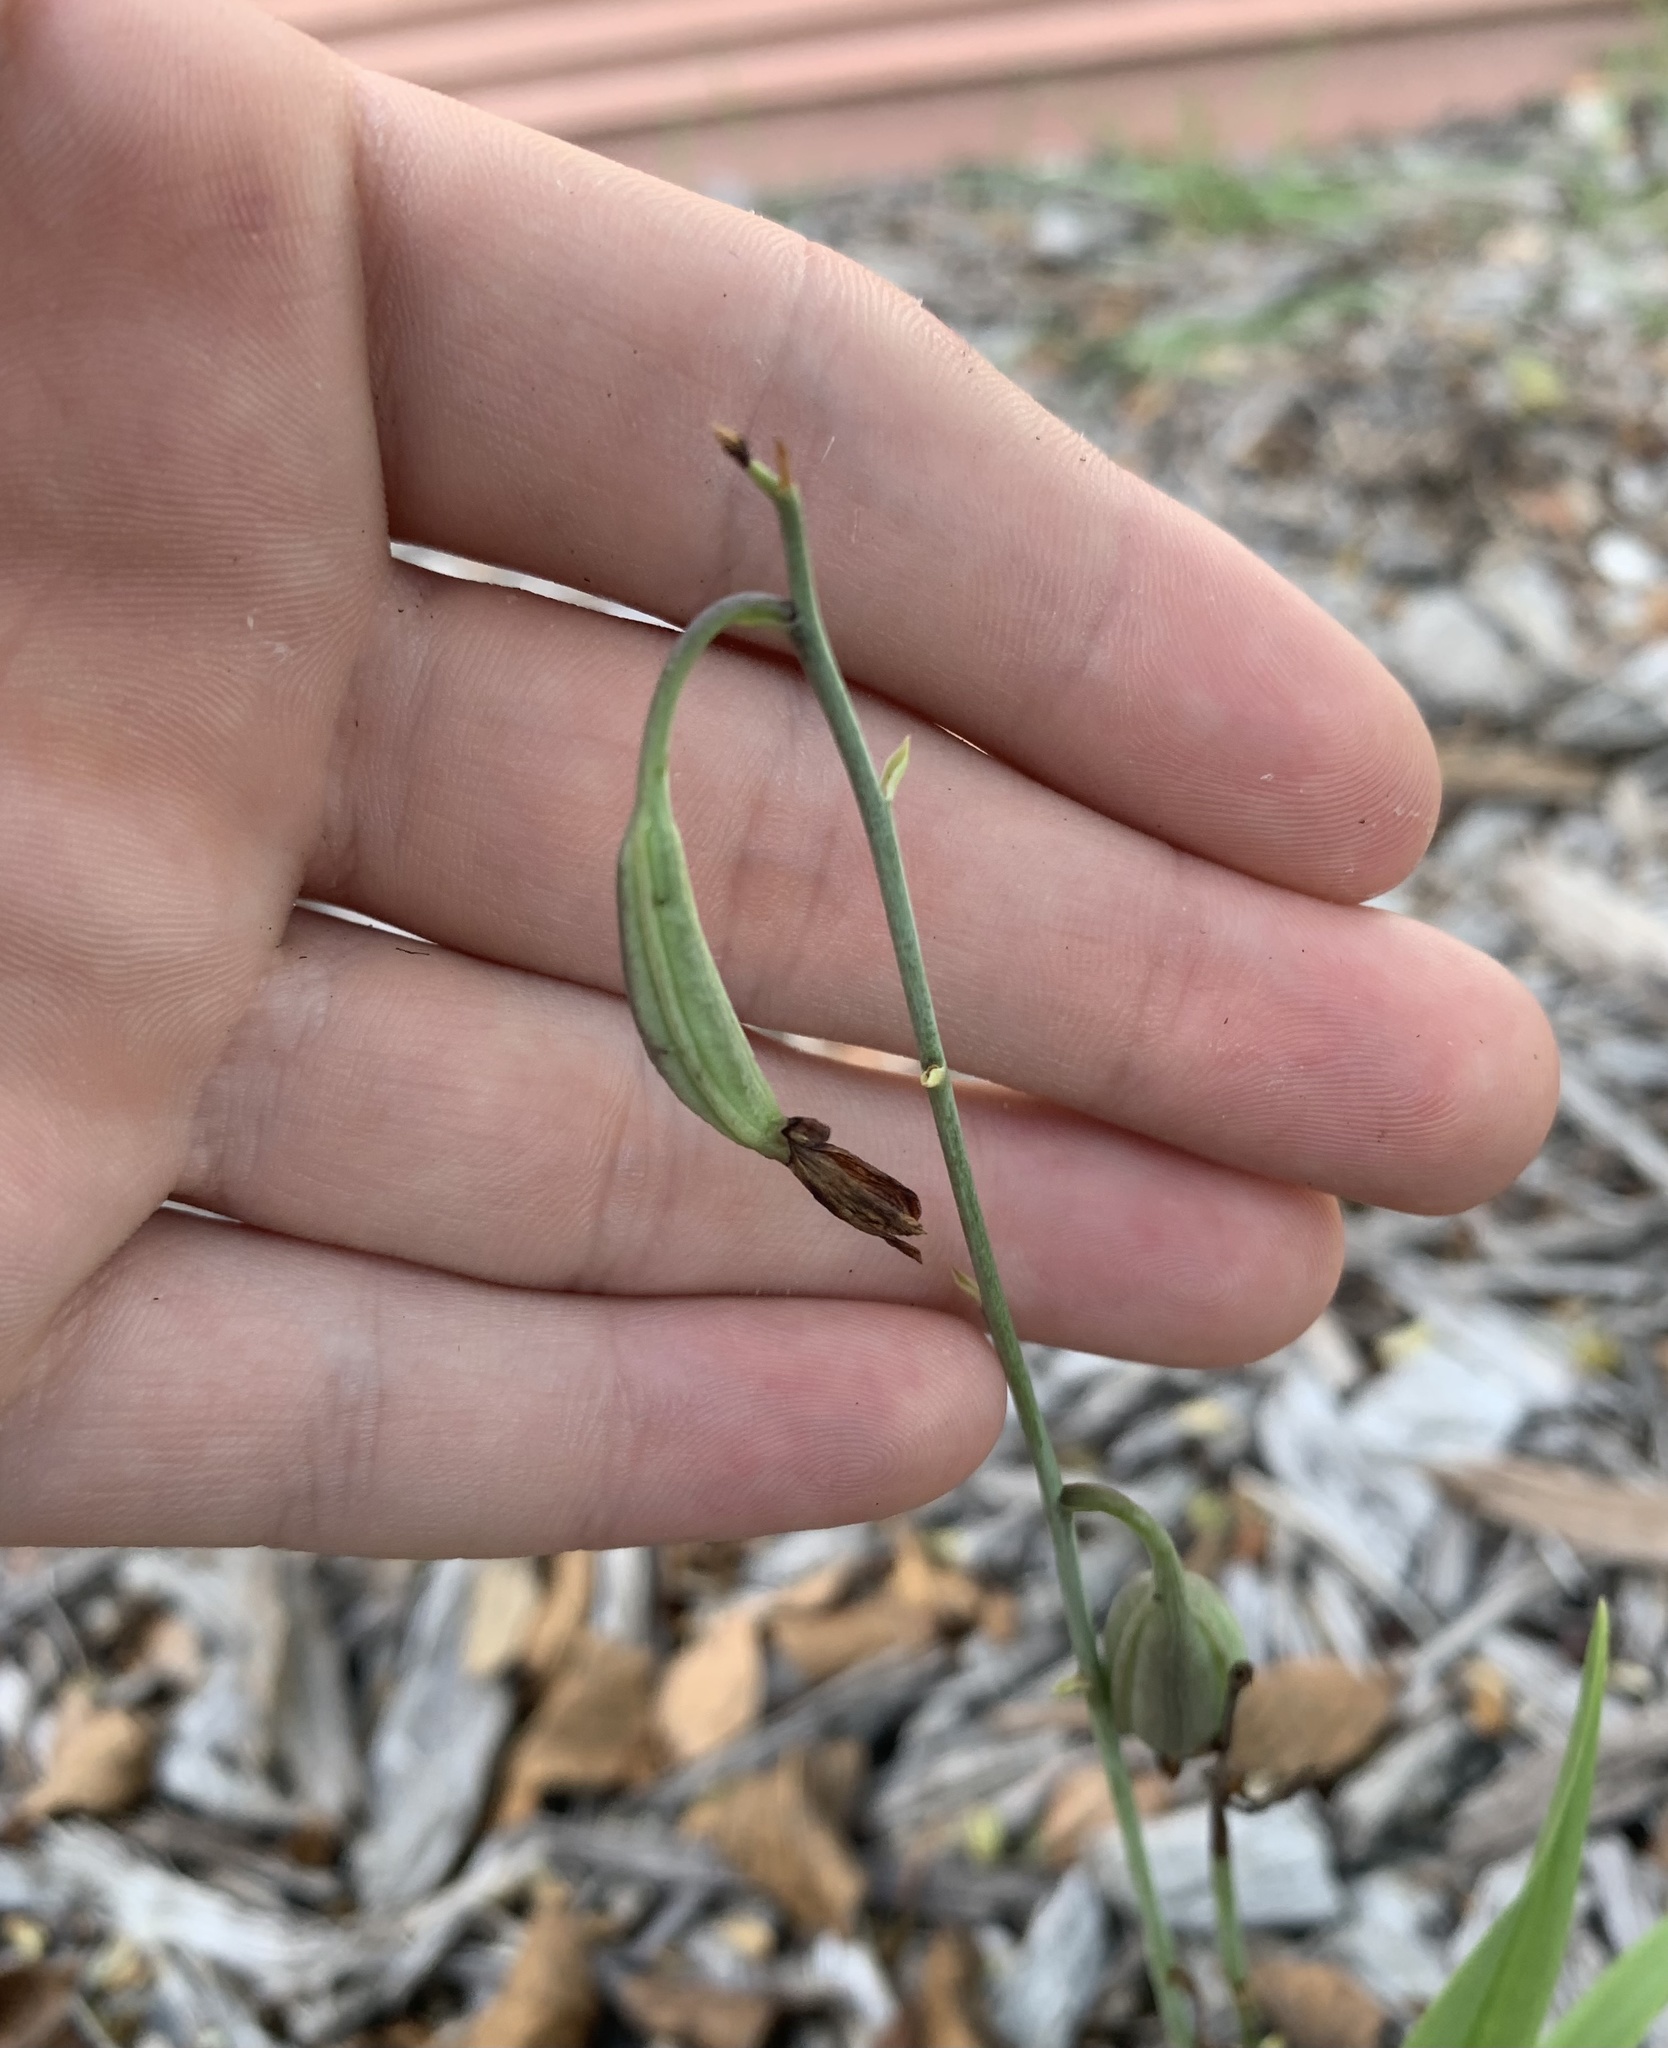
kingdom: Plantae
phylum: Tracheophyta
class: Liliopsida
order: Asparagales
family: Orchidaceae
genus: Eulophia
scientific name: Eulophia graminea
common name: Orchid
